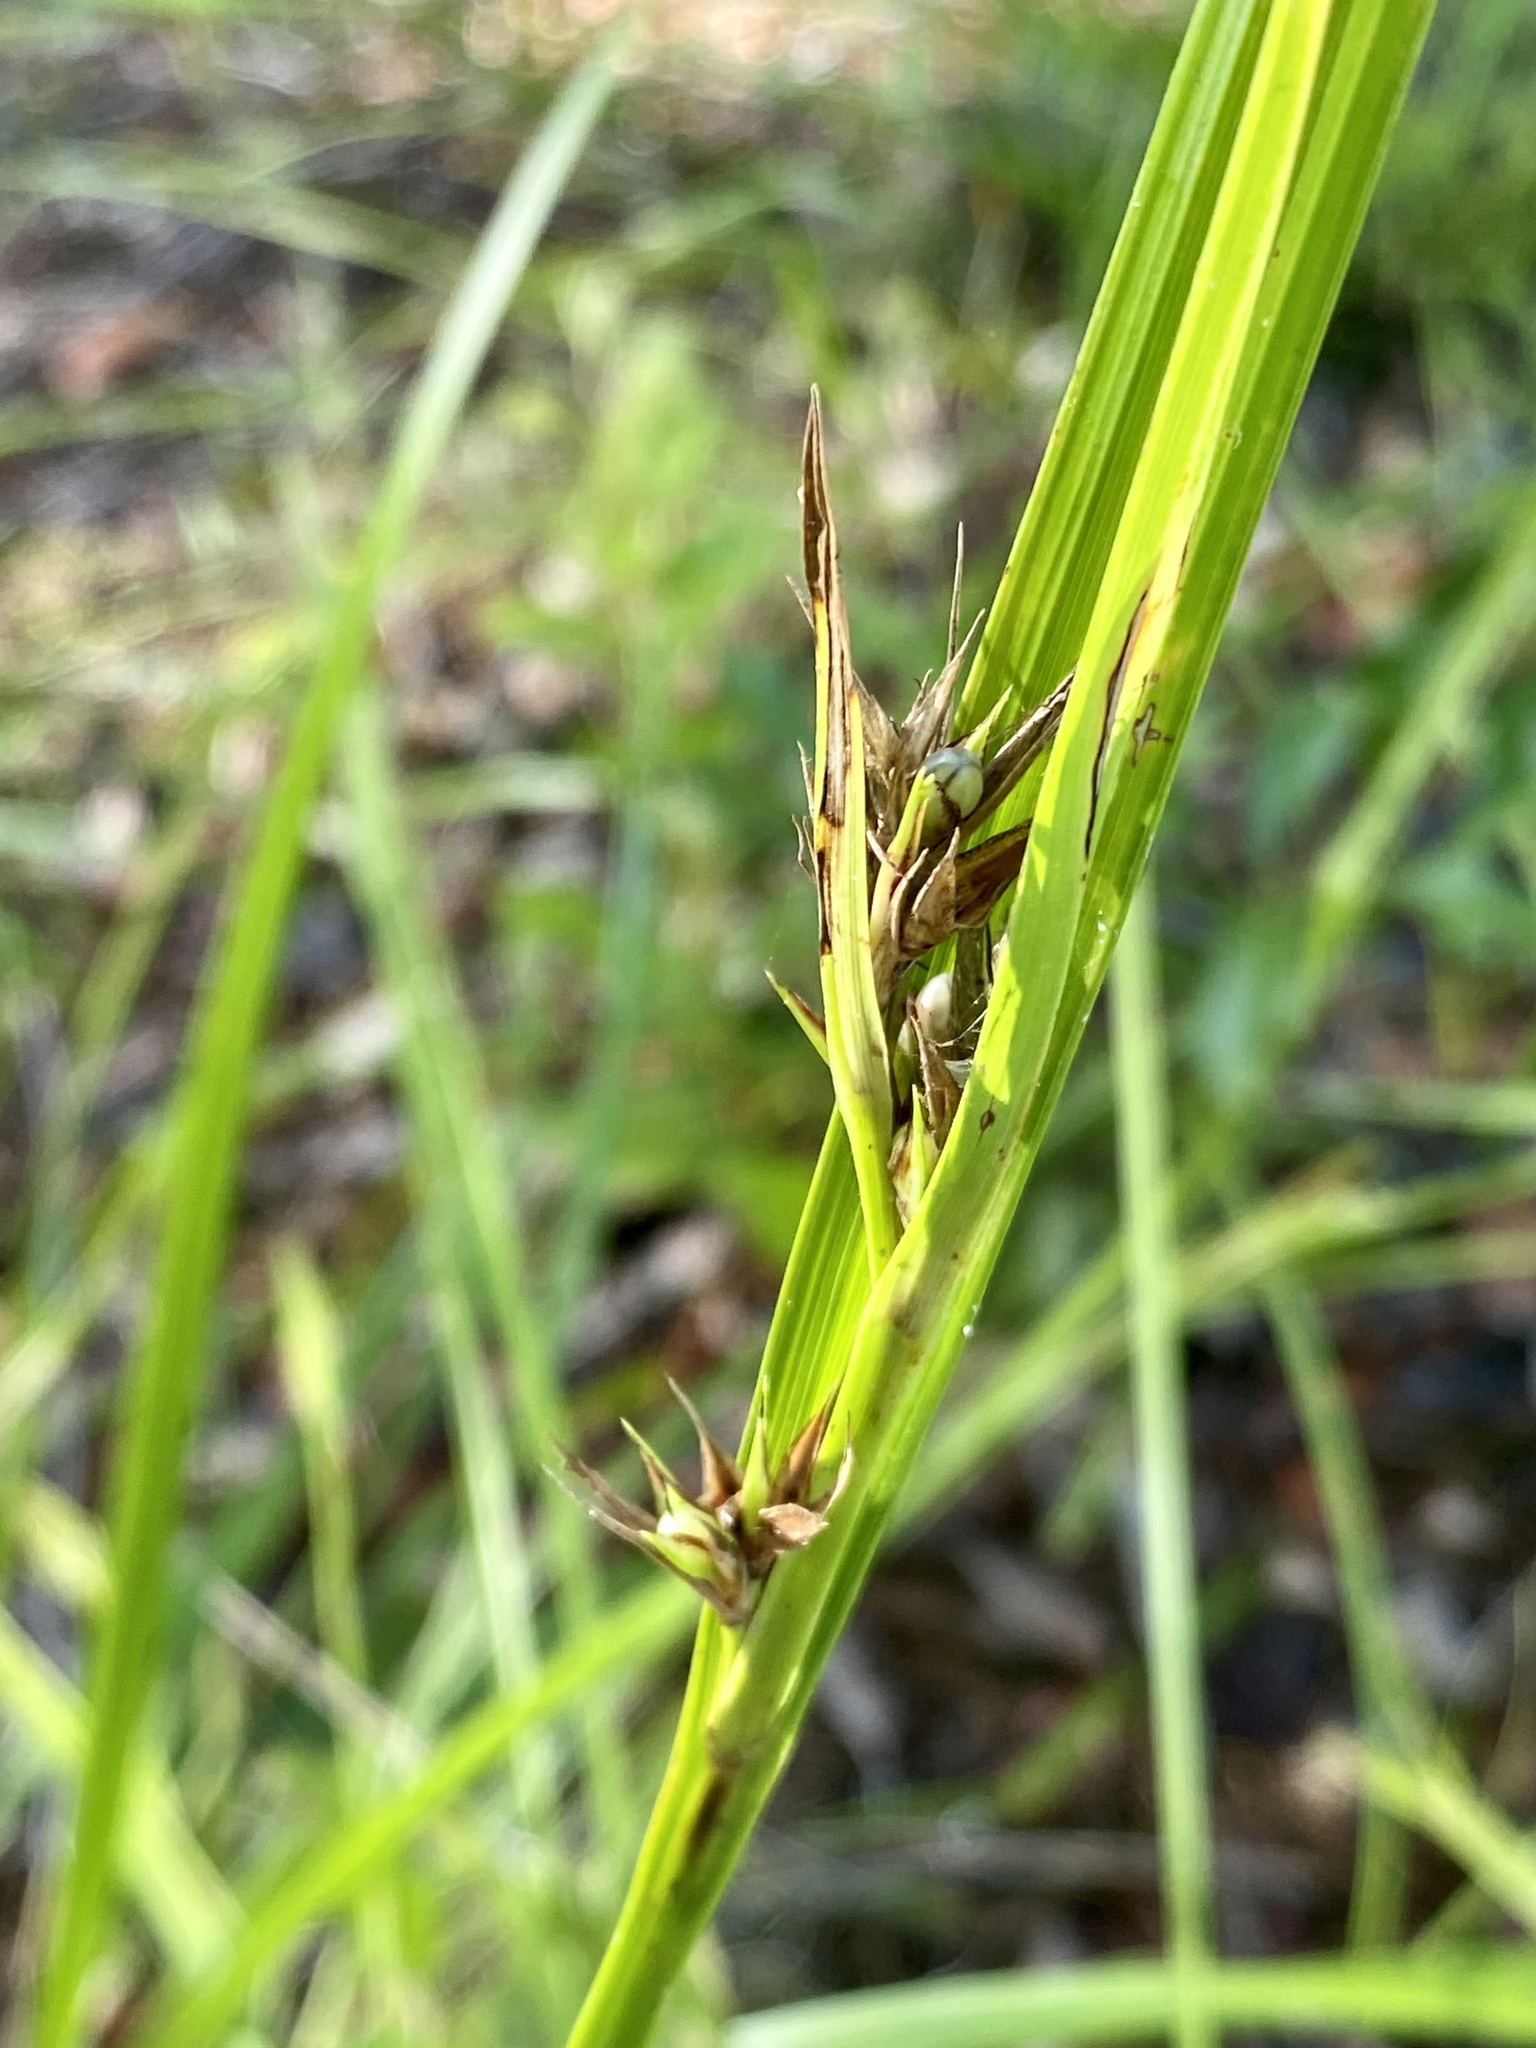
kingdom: Plantae
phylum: Tracheophyta
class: Liliopsida
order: Poales
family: Cyperaceae
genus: Scleria
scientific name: Scleria triglomerata
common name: Whip nutrush
